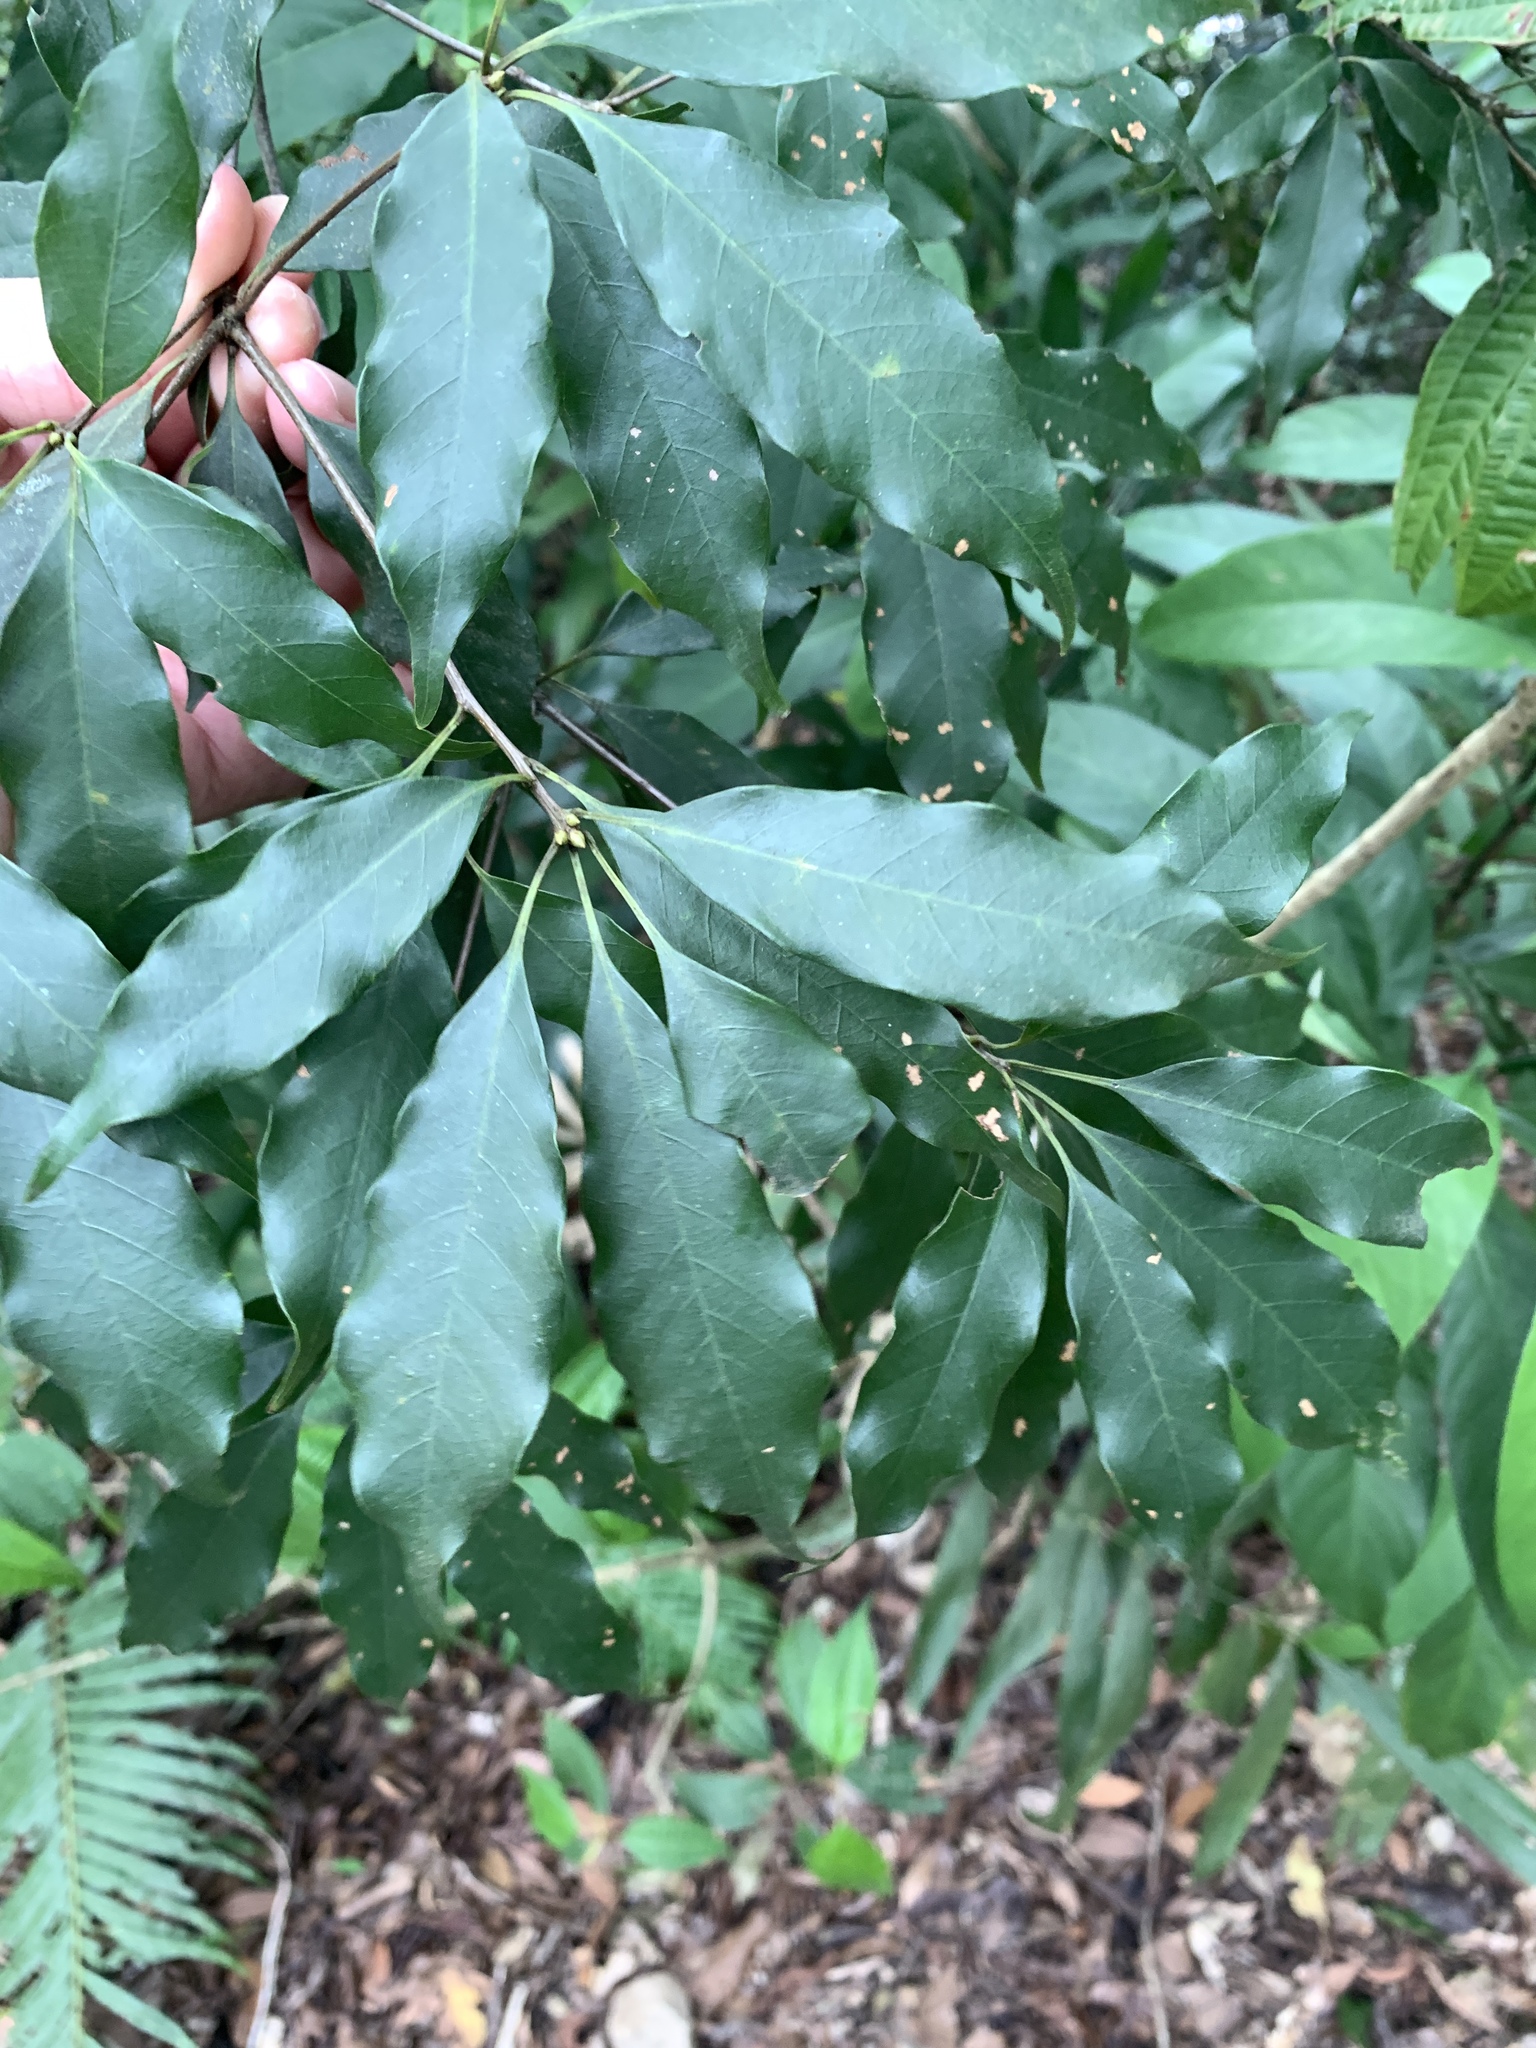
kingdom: Plantae
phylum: Tracheophyta
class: Magnoliopsida
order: Fagales
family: Fagaceae
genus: Quercus
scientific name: Quercus longinux
